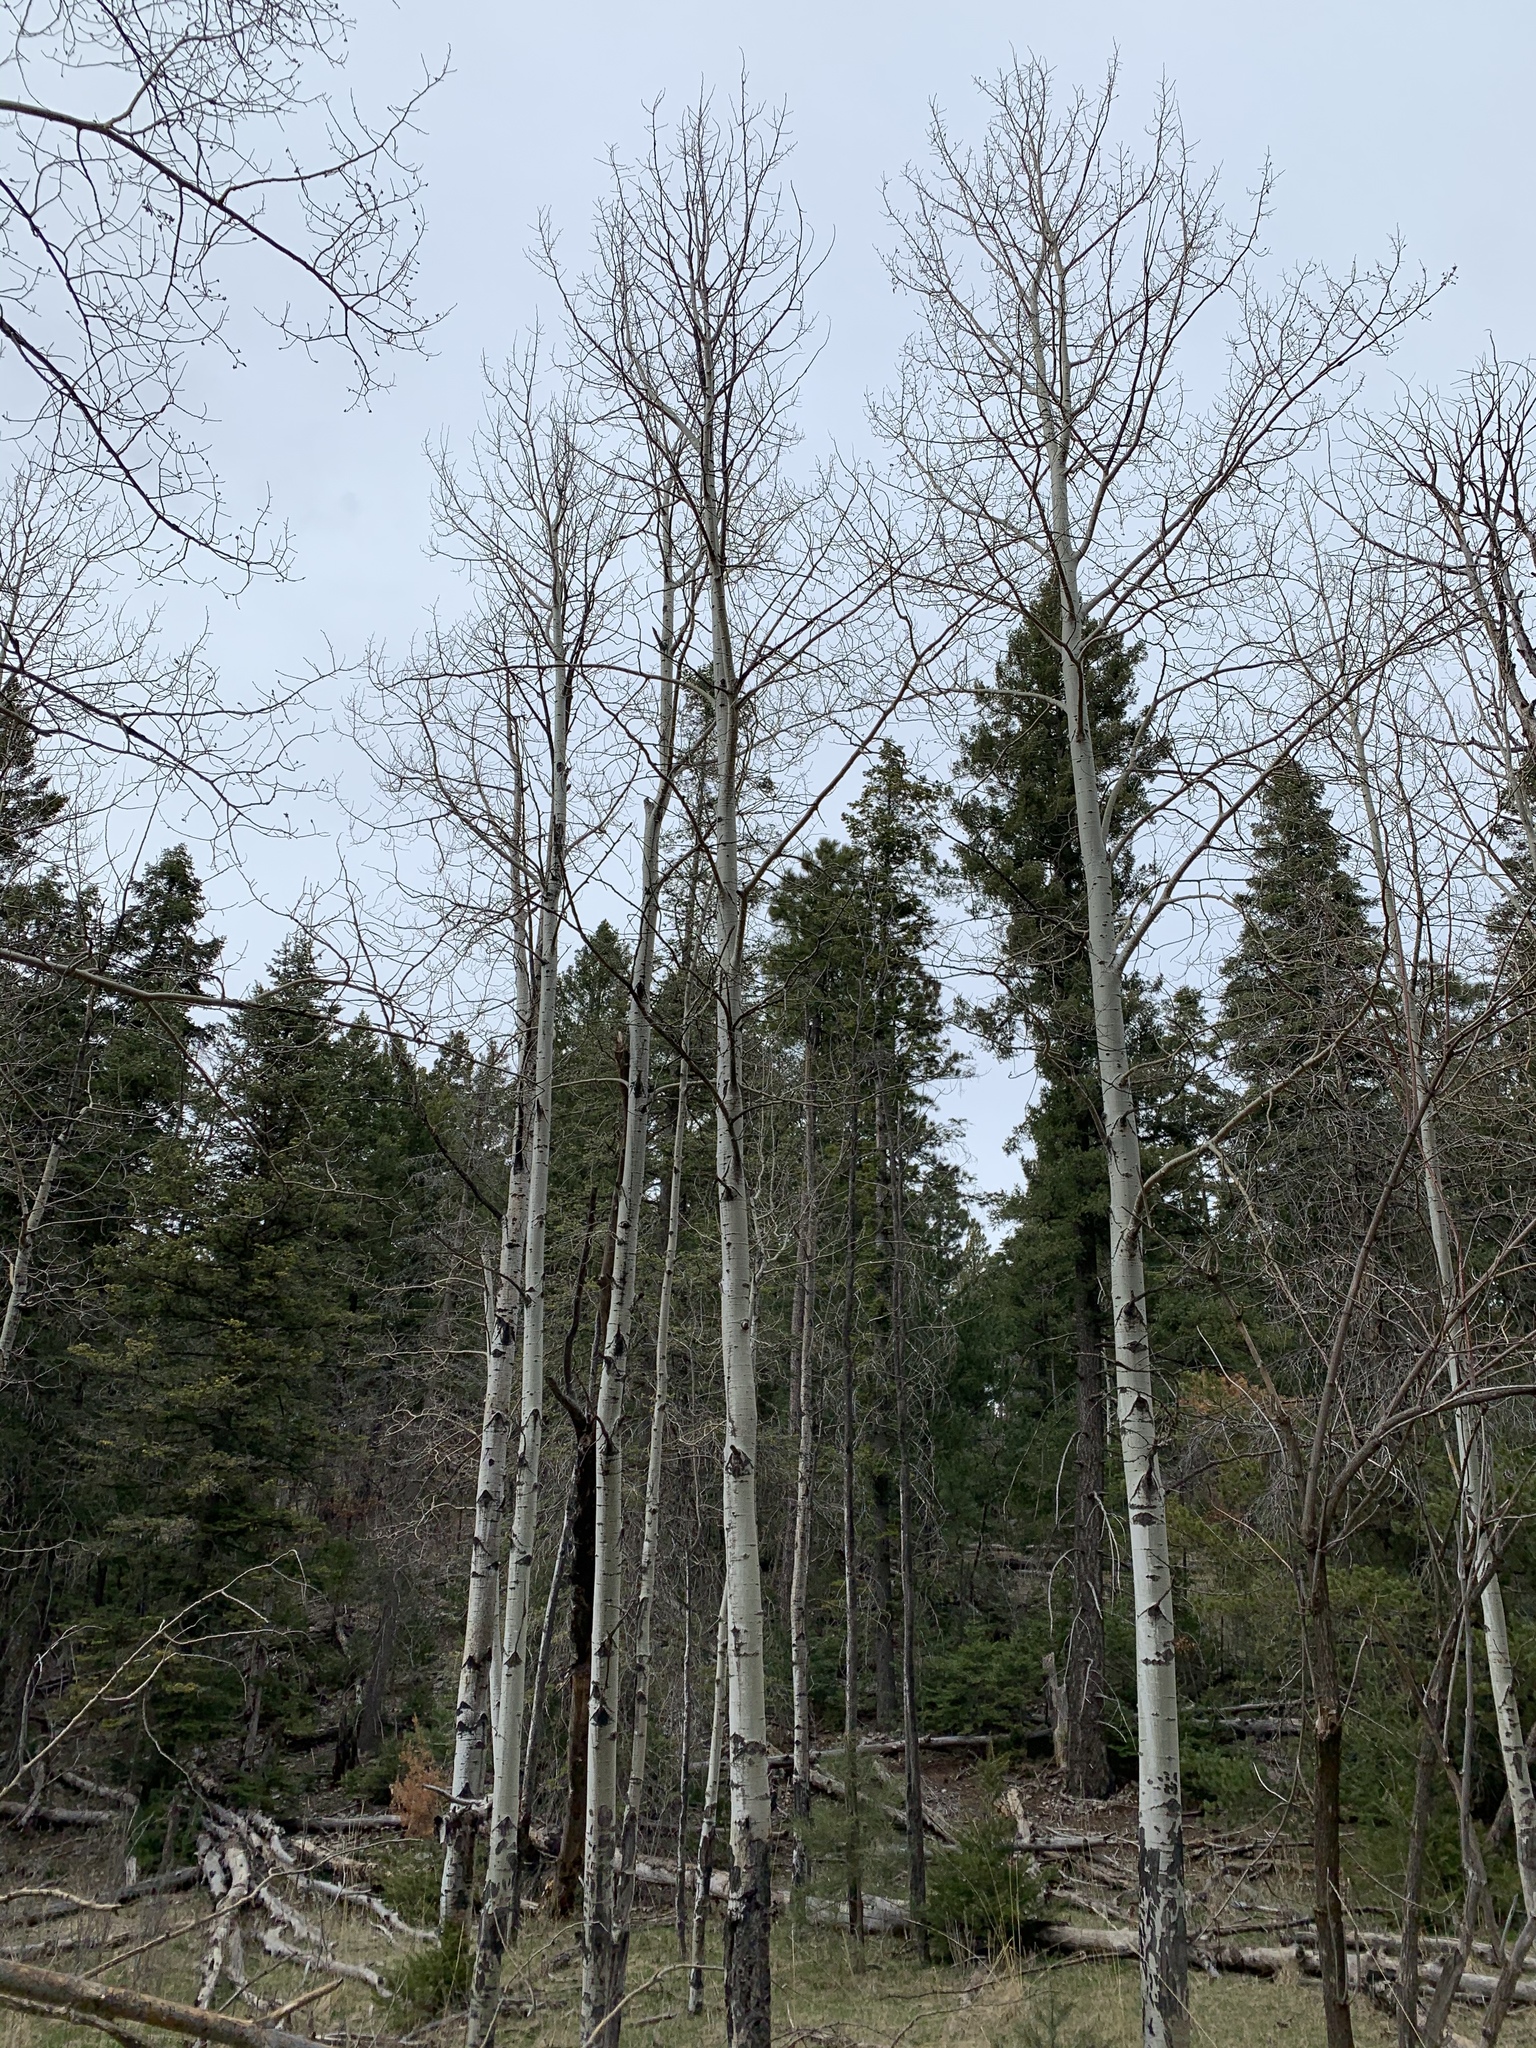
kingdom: Plantae
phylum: Tracheophyta
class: Magnoliopsida
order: Malpighiales
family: Salicaceae
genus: Populus
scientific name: Populus tremuloides
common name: Quaking aspen
